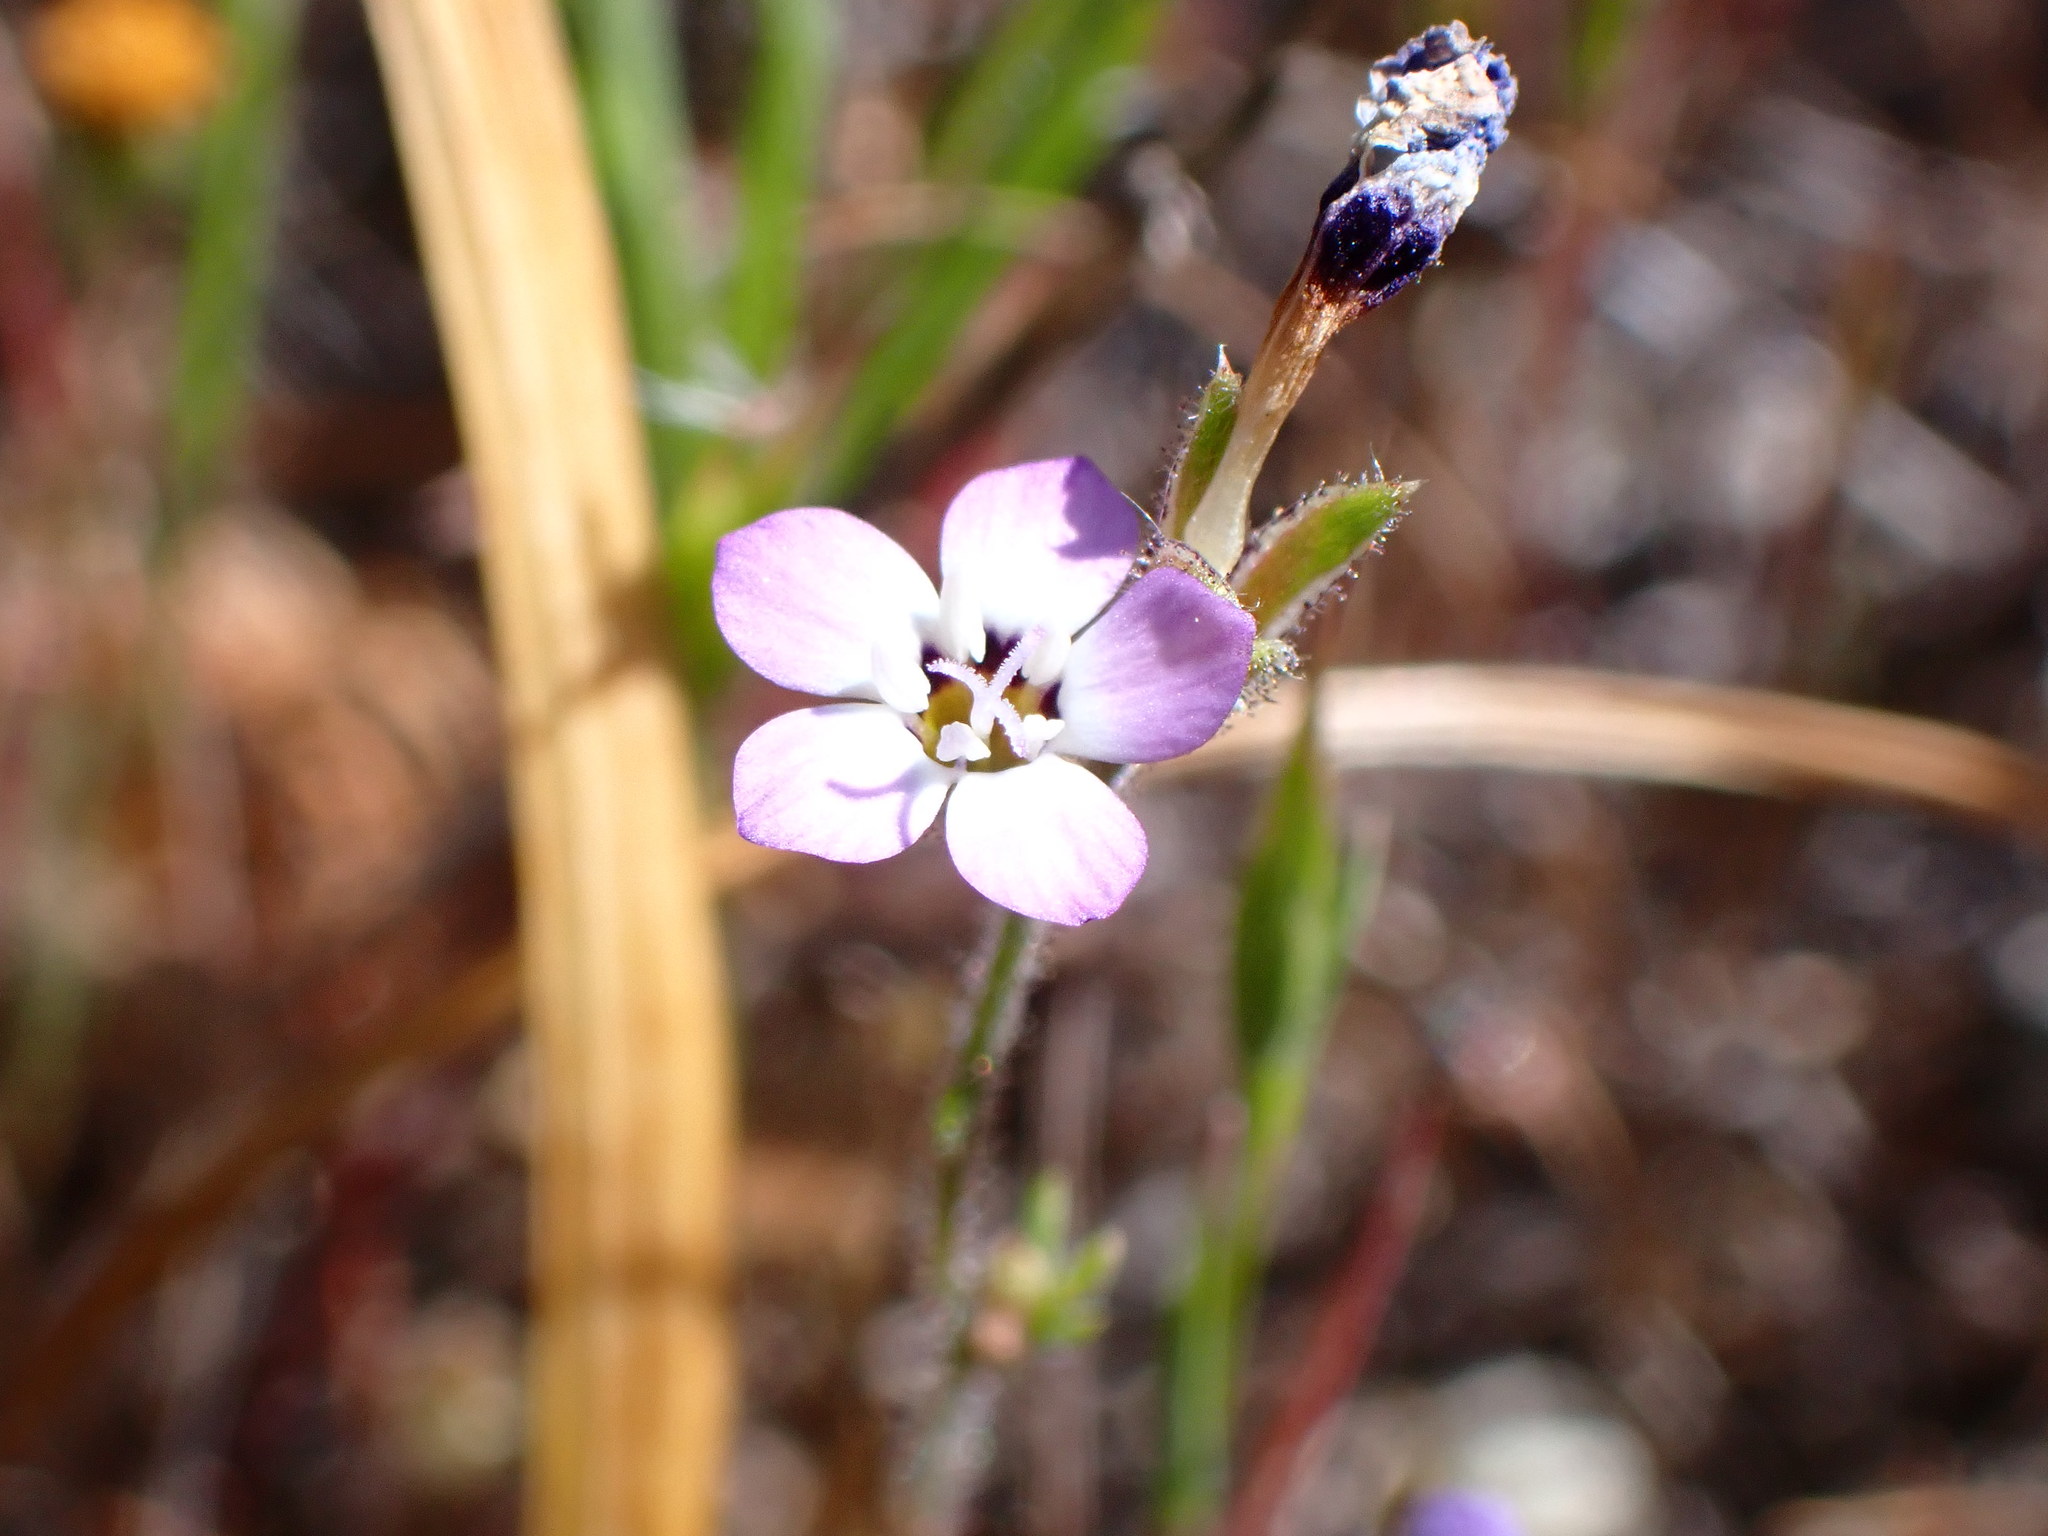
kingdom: Plantae
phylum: Tracheophyta
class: Magnoliopsida
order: Ericales
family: Polemoniaceae
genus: Gilia
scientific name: Gilia tricolor
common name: Bird's-eyes
